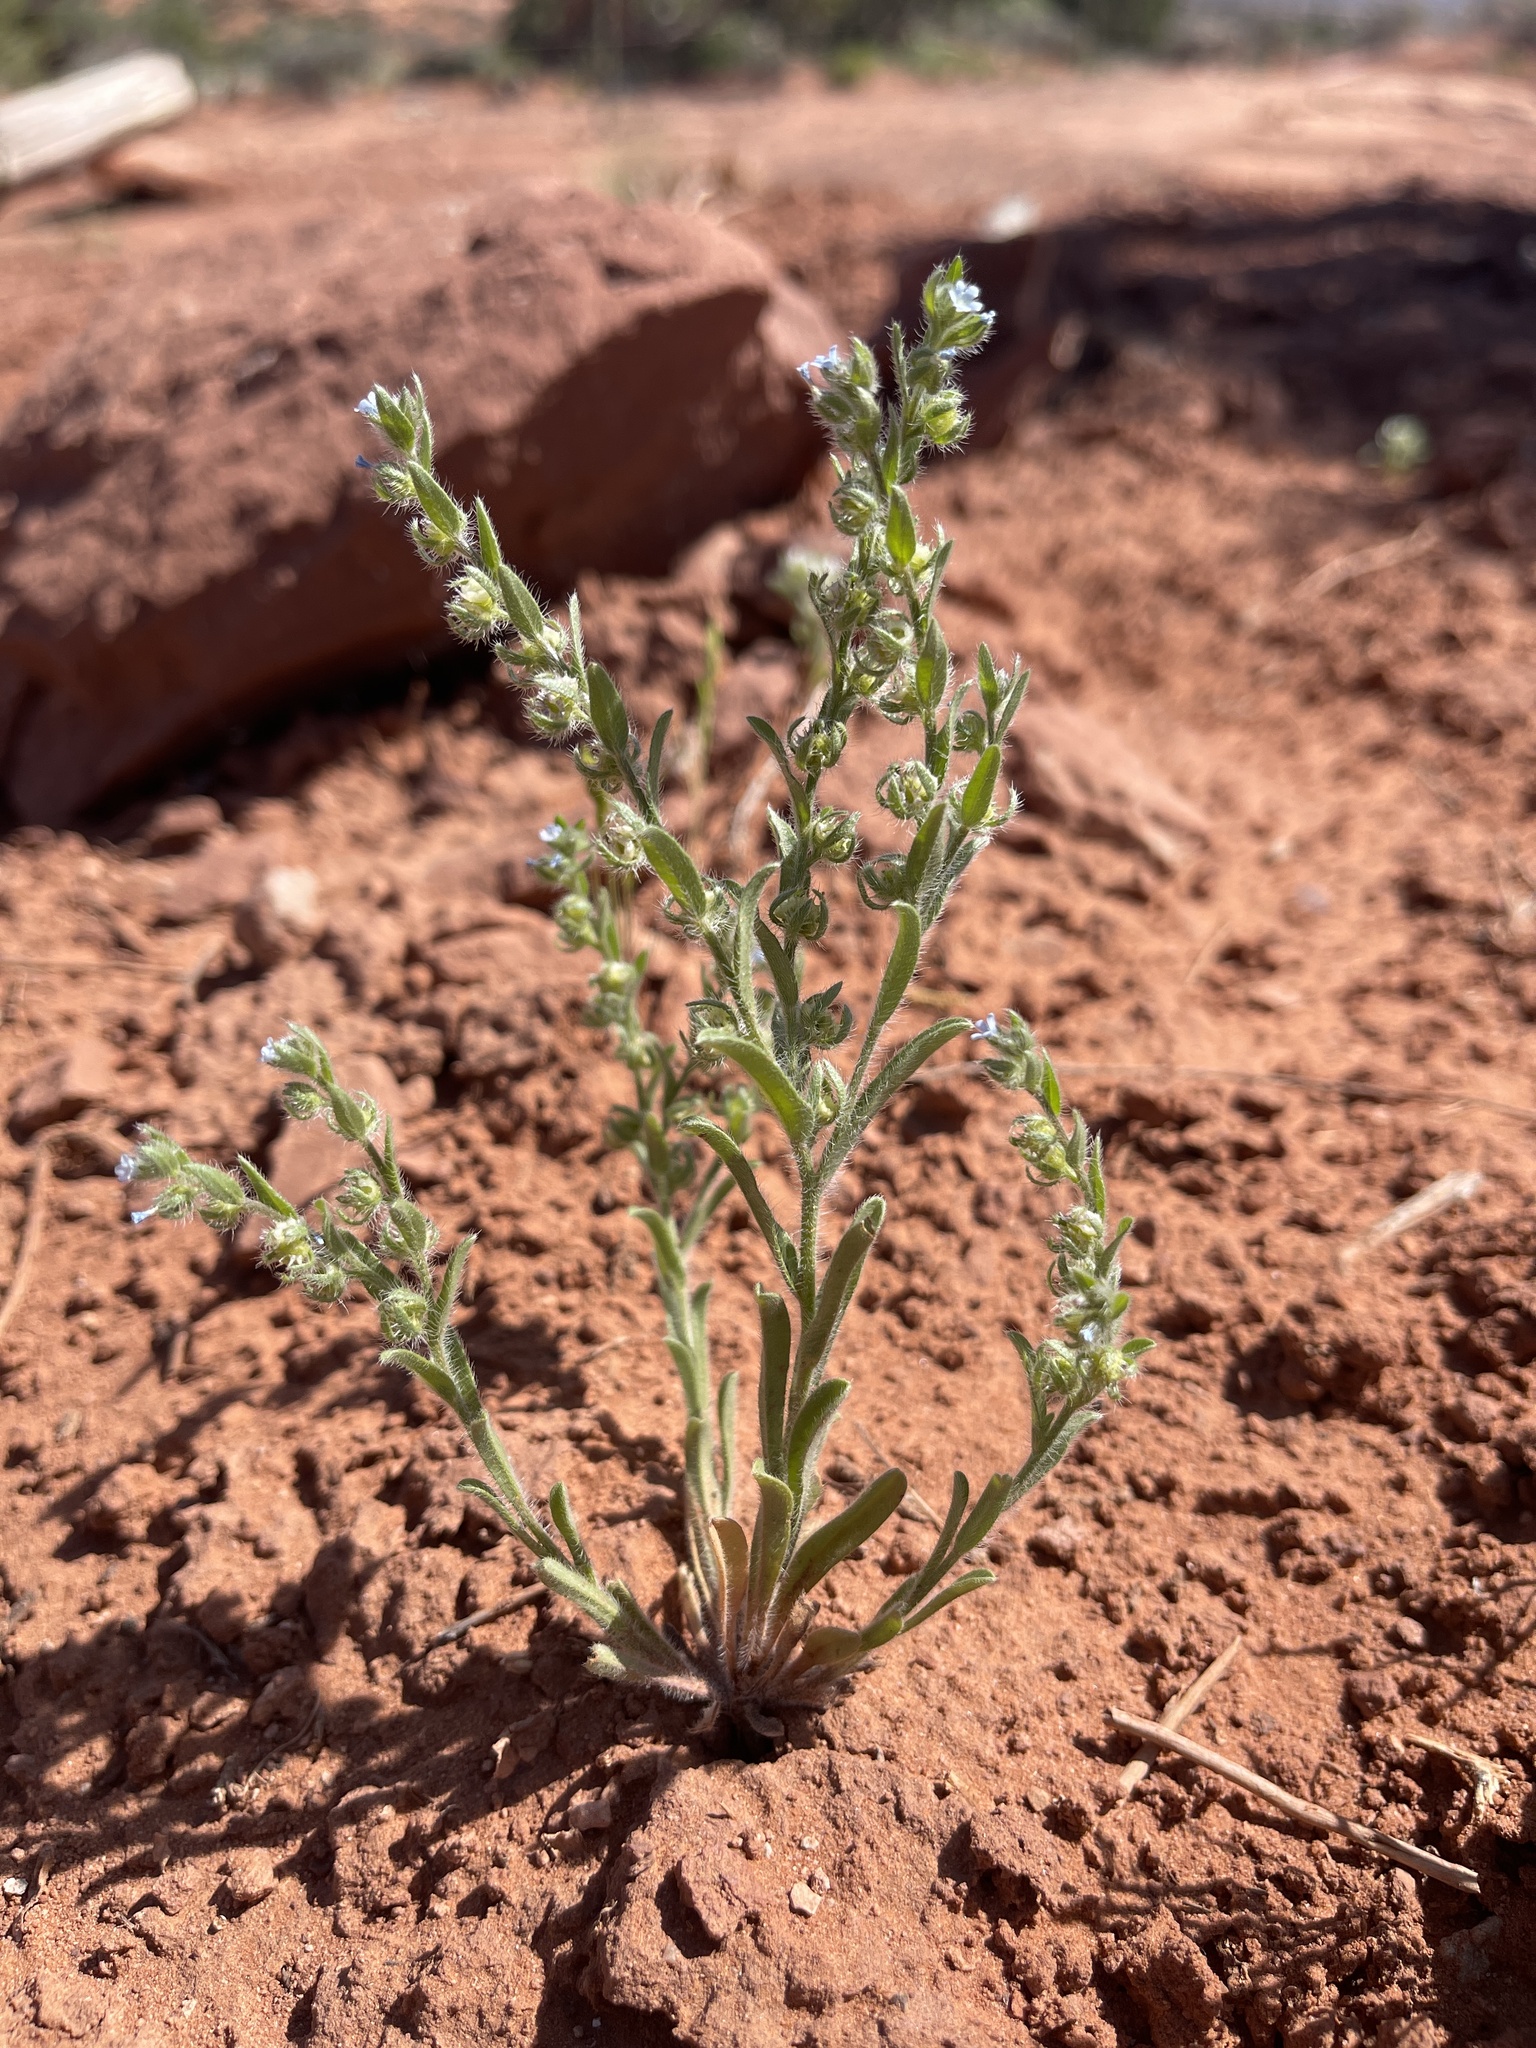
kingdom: Plantae
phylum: Tracheophyta
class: Magnoliopsida
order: Boraginales
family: Boraginaceae
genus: Lappula
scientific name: Lappula occidentalis
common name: Western stickseed
